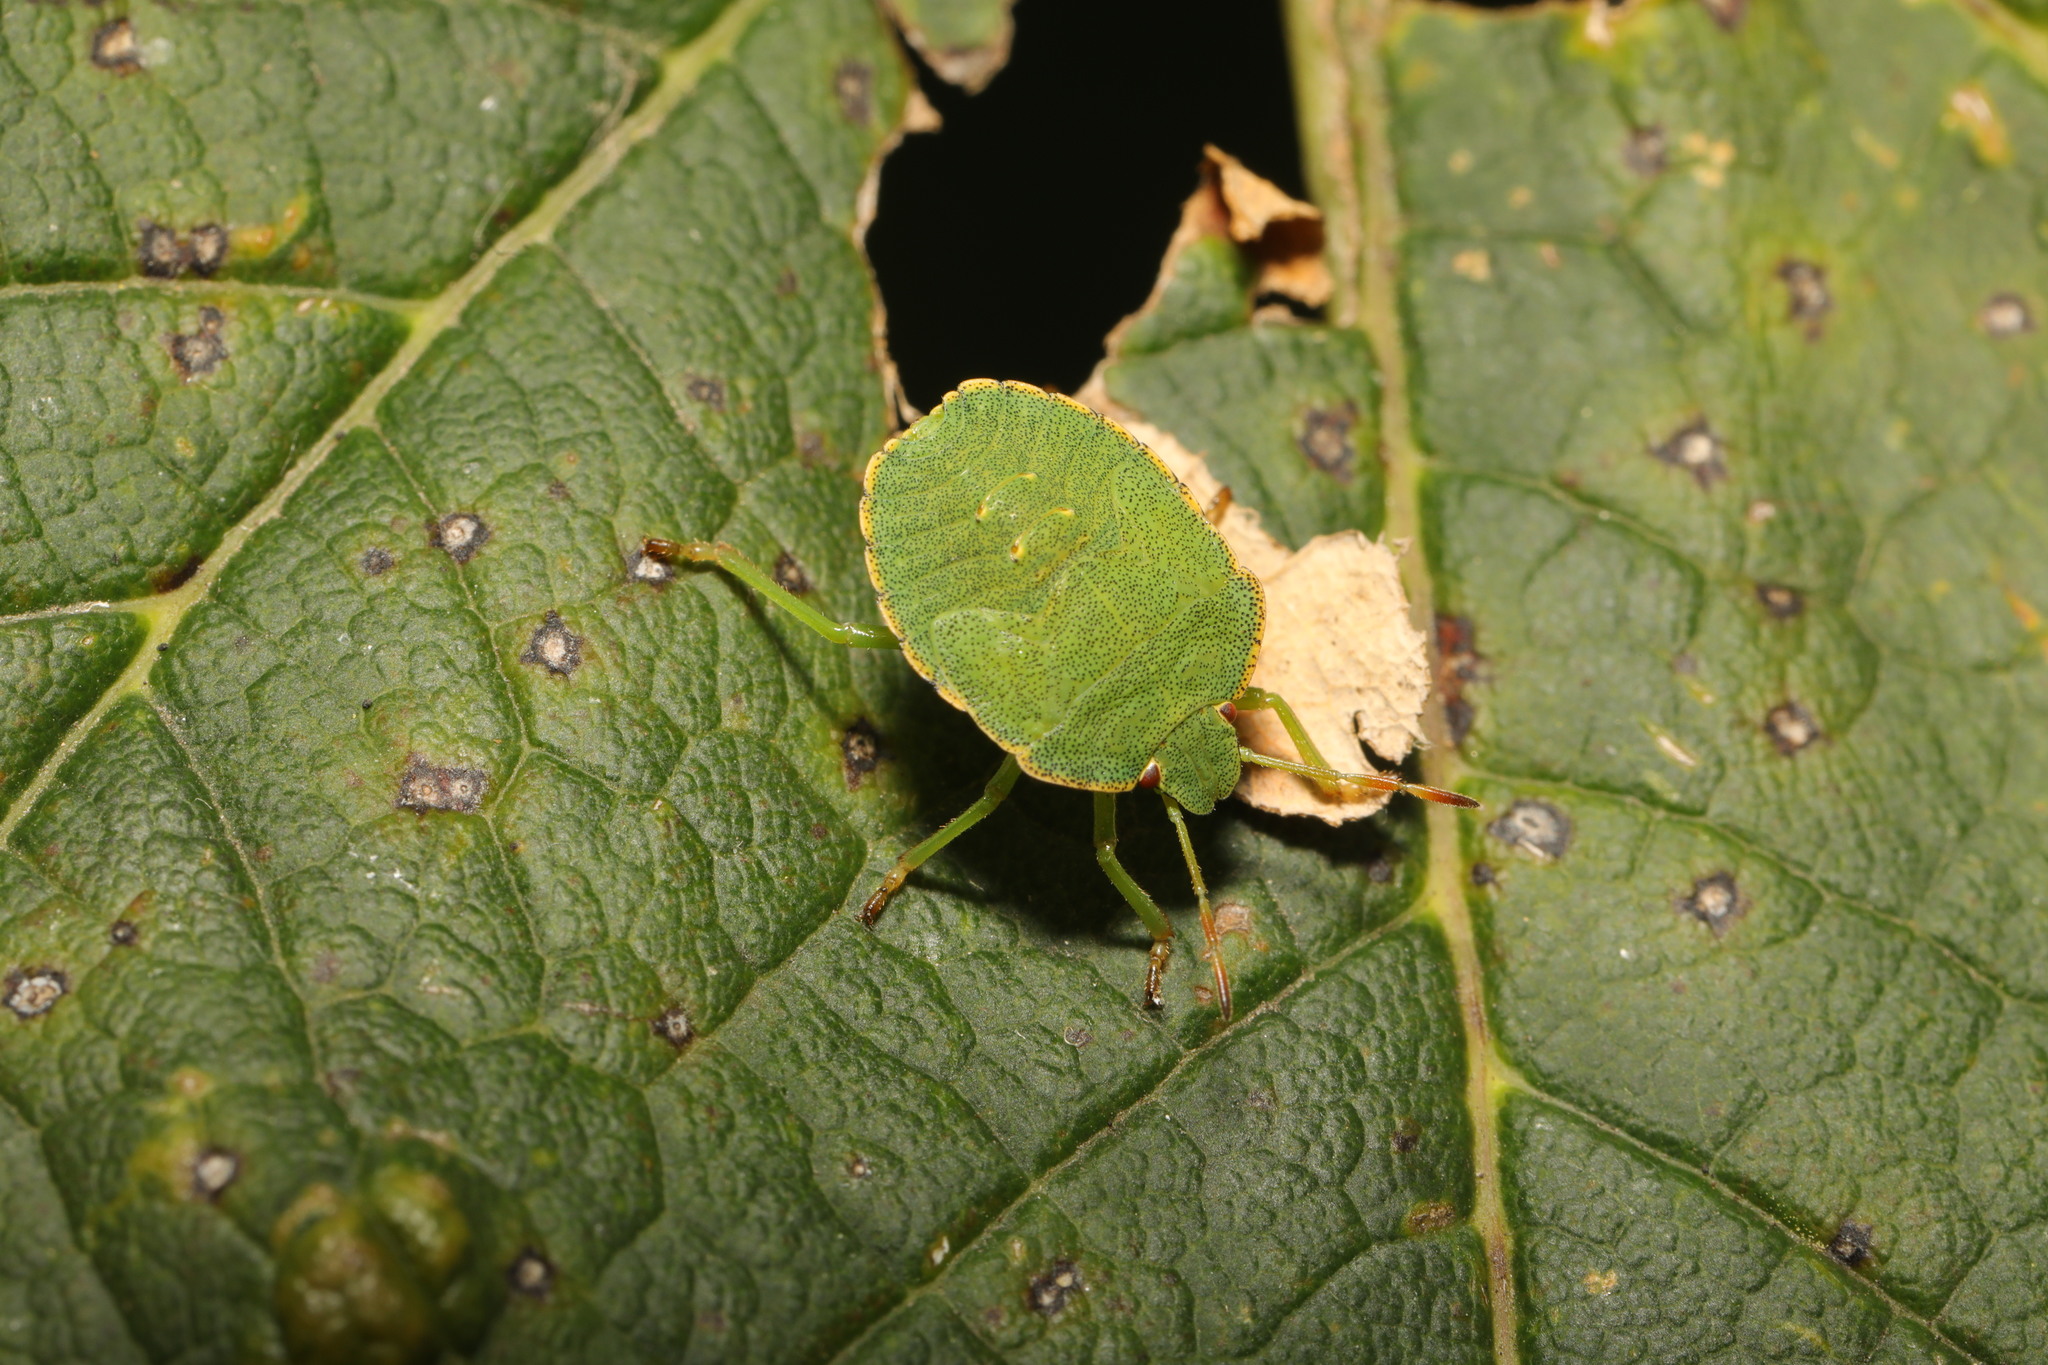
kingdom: Animalia
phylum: Arthropoda
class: Insecta
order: Hemiptera
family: Pentatomidae
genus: Palomena
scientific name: Palomena prasina
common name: Green shieldbug
